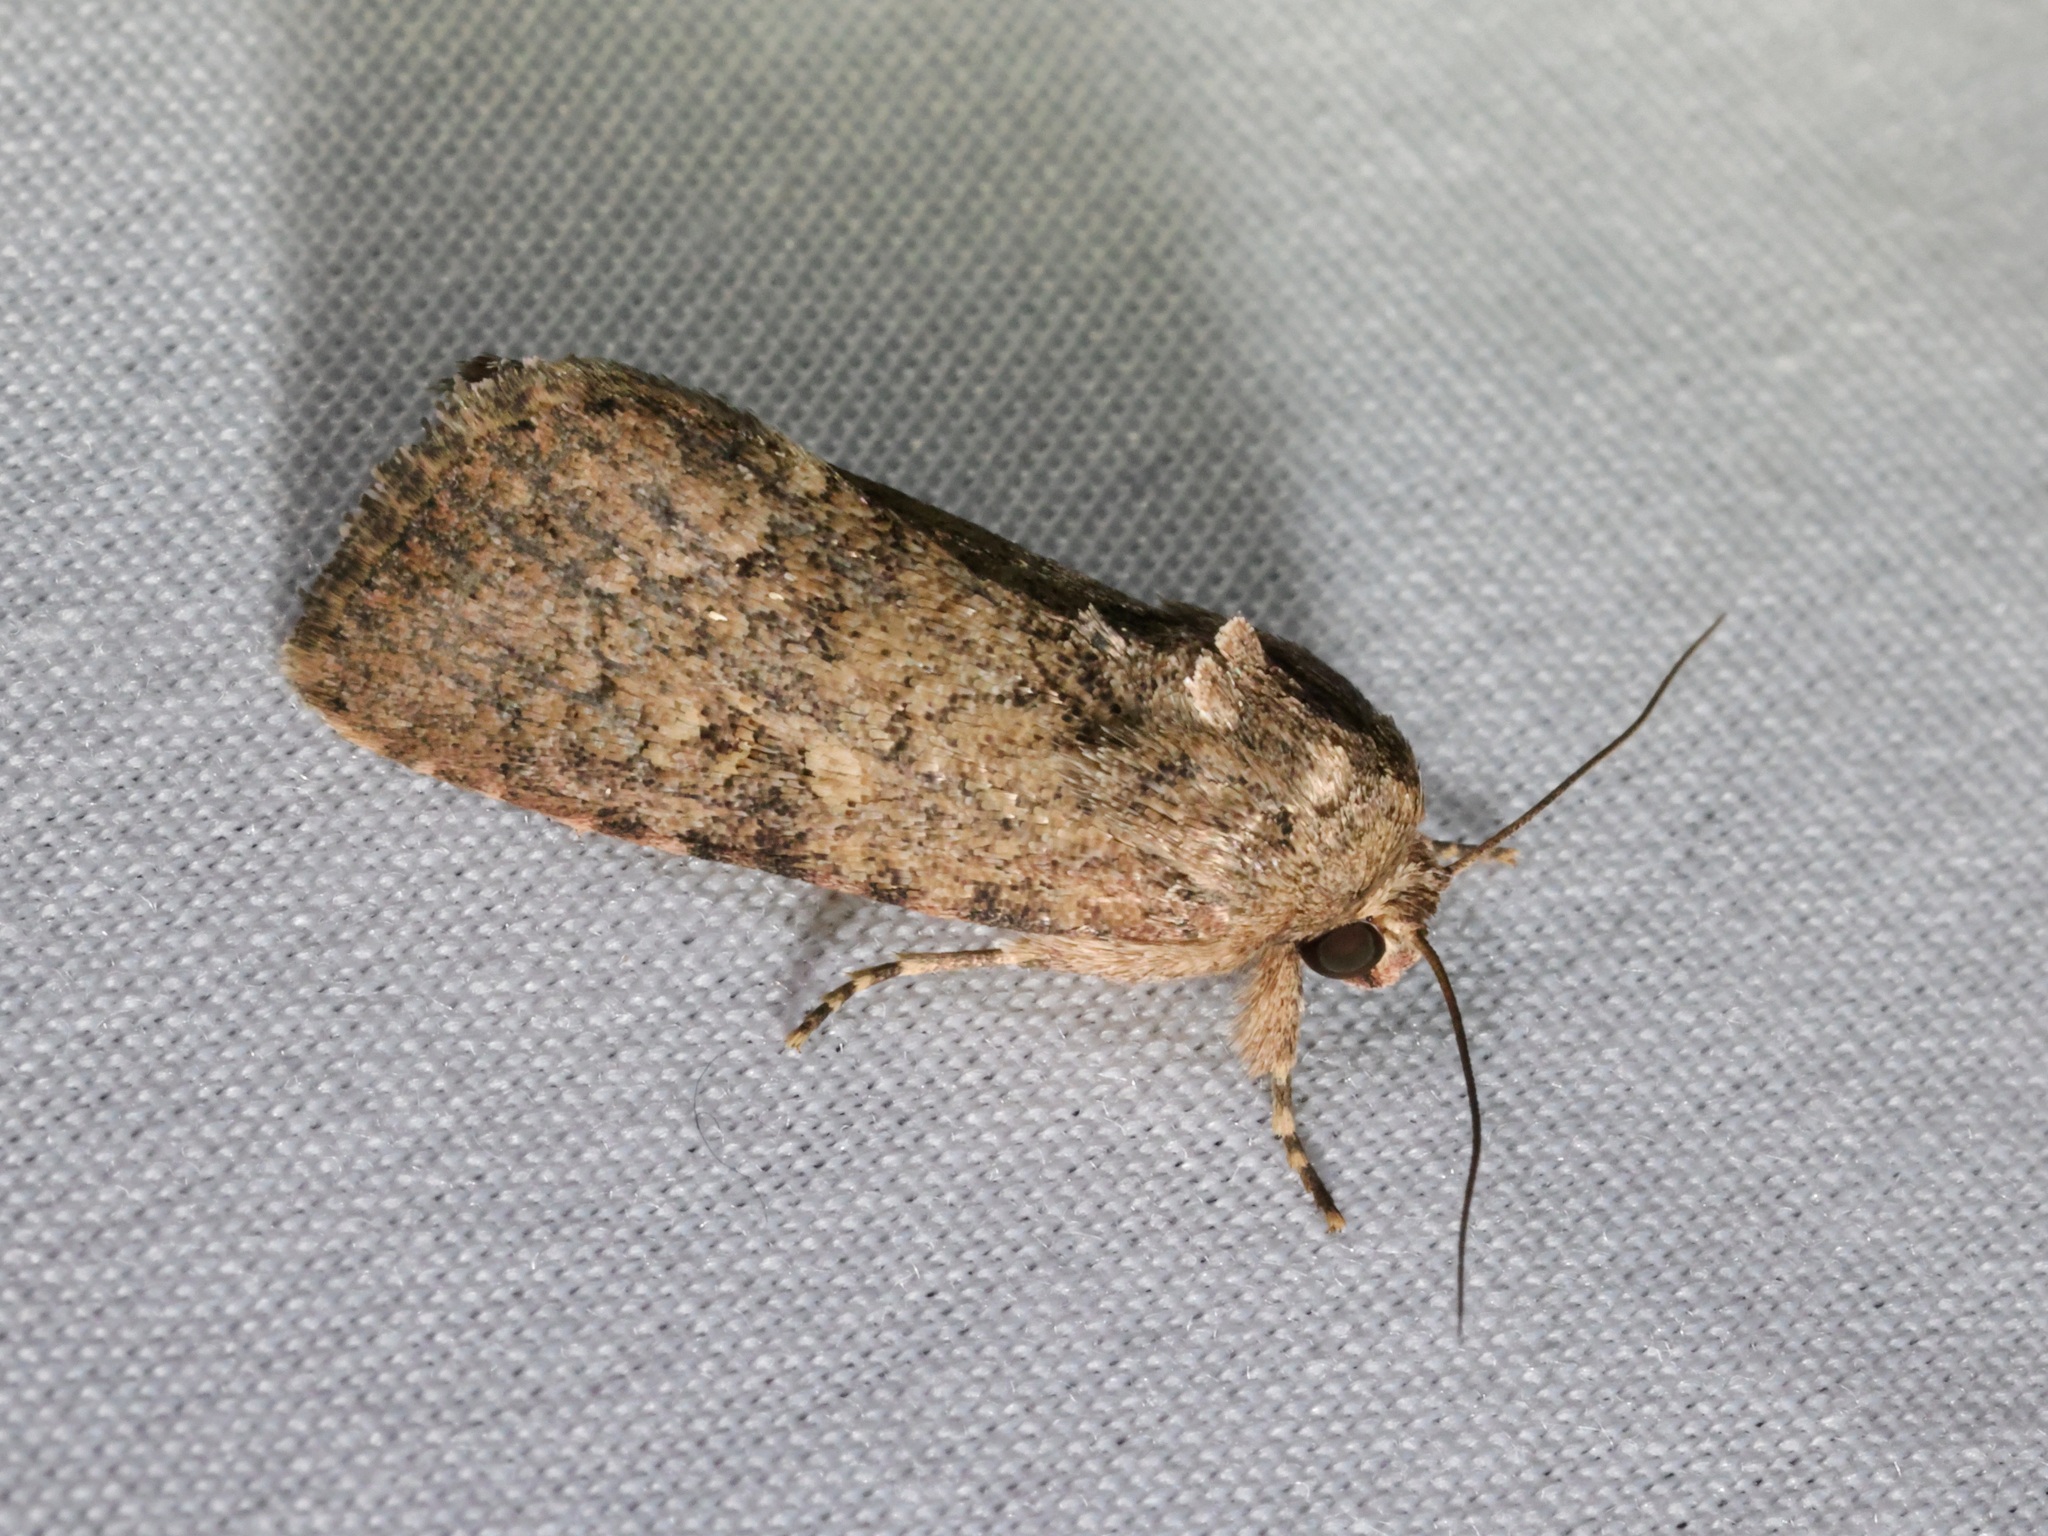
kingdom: Animalia
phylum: Arthropoda
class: Insecta
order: Lepidoptera
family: Noctuidae
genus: Mythimna
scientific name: Mythimna snelleni
